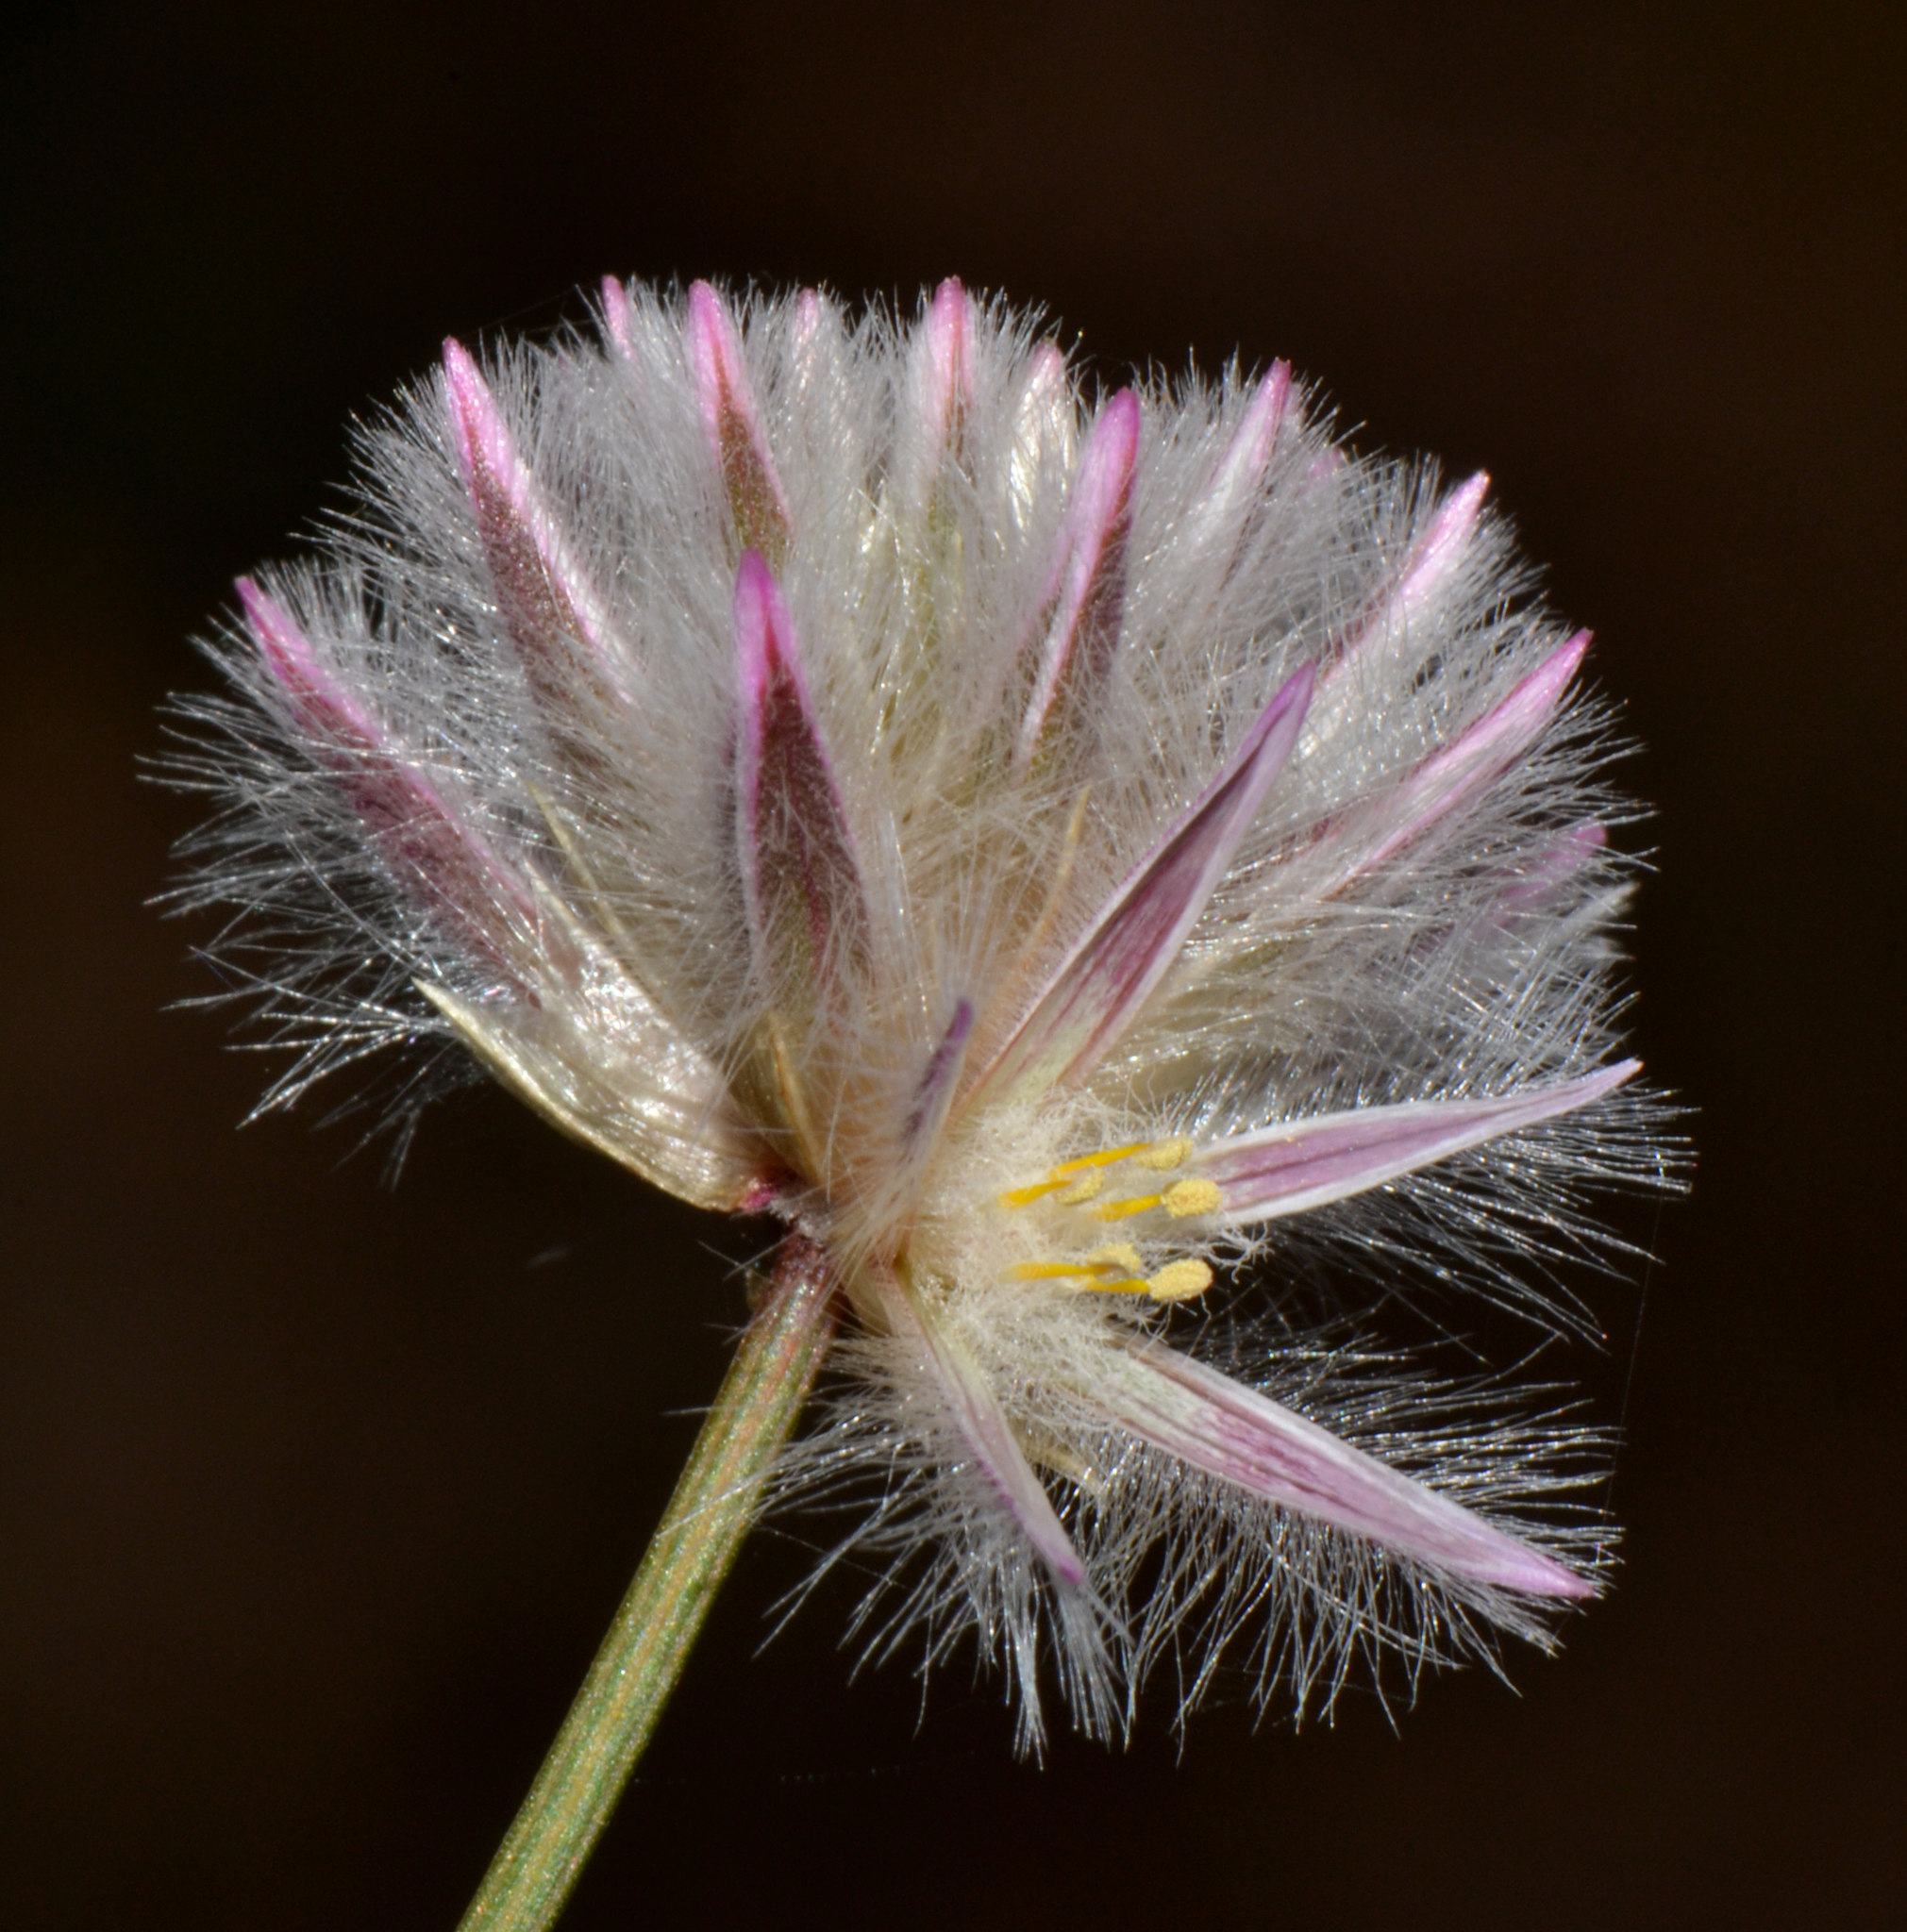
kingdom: Plantae
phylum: Tracheophyta
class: Magnoliopsida
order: Caryophyllales
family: Amaranthaceae
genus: Ptilotus
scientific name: Ptilotus drummondii
